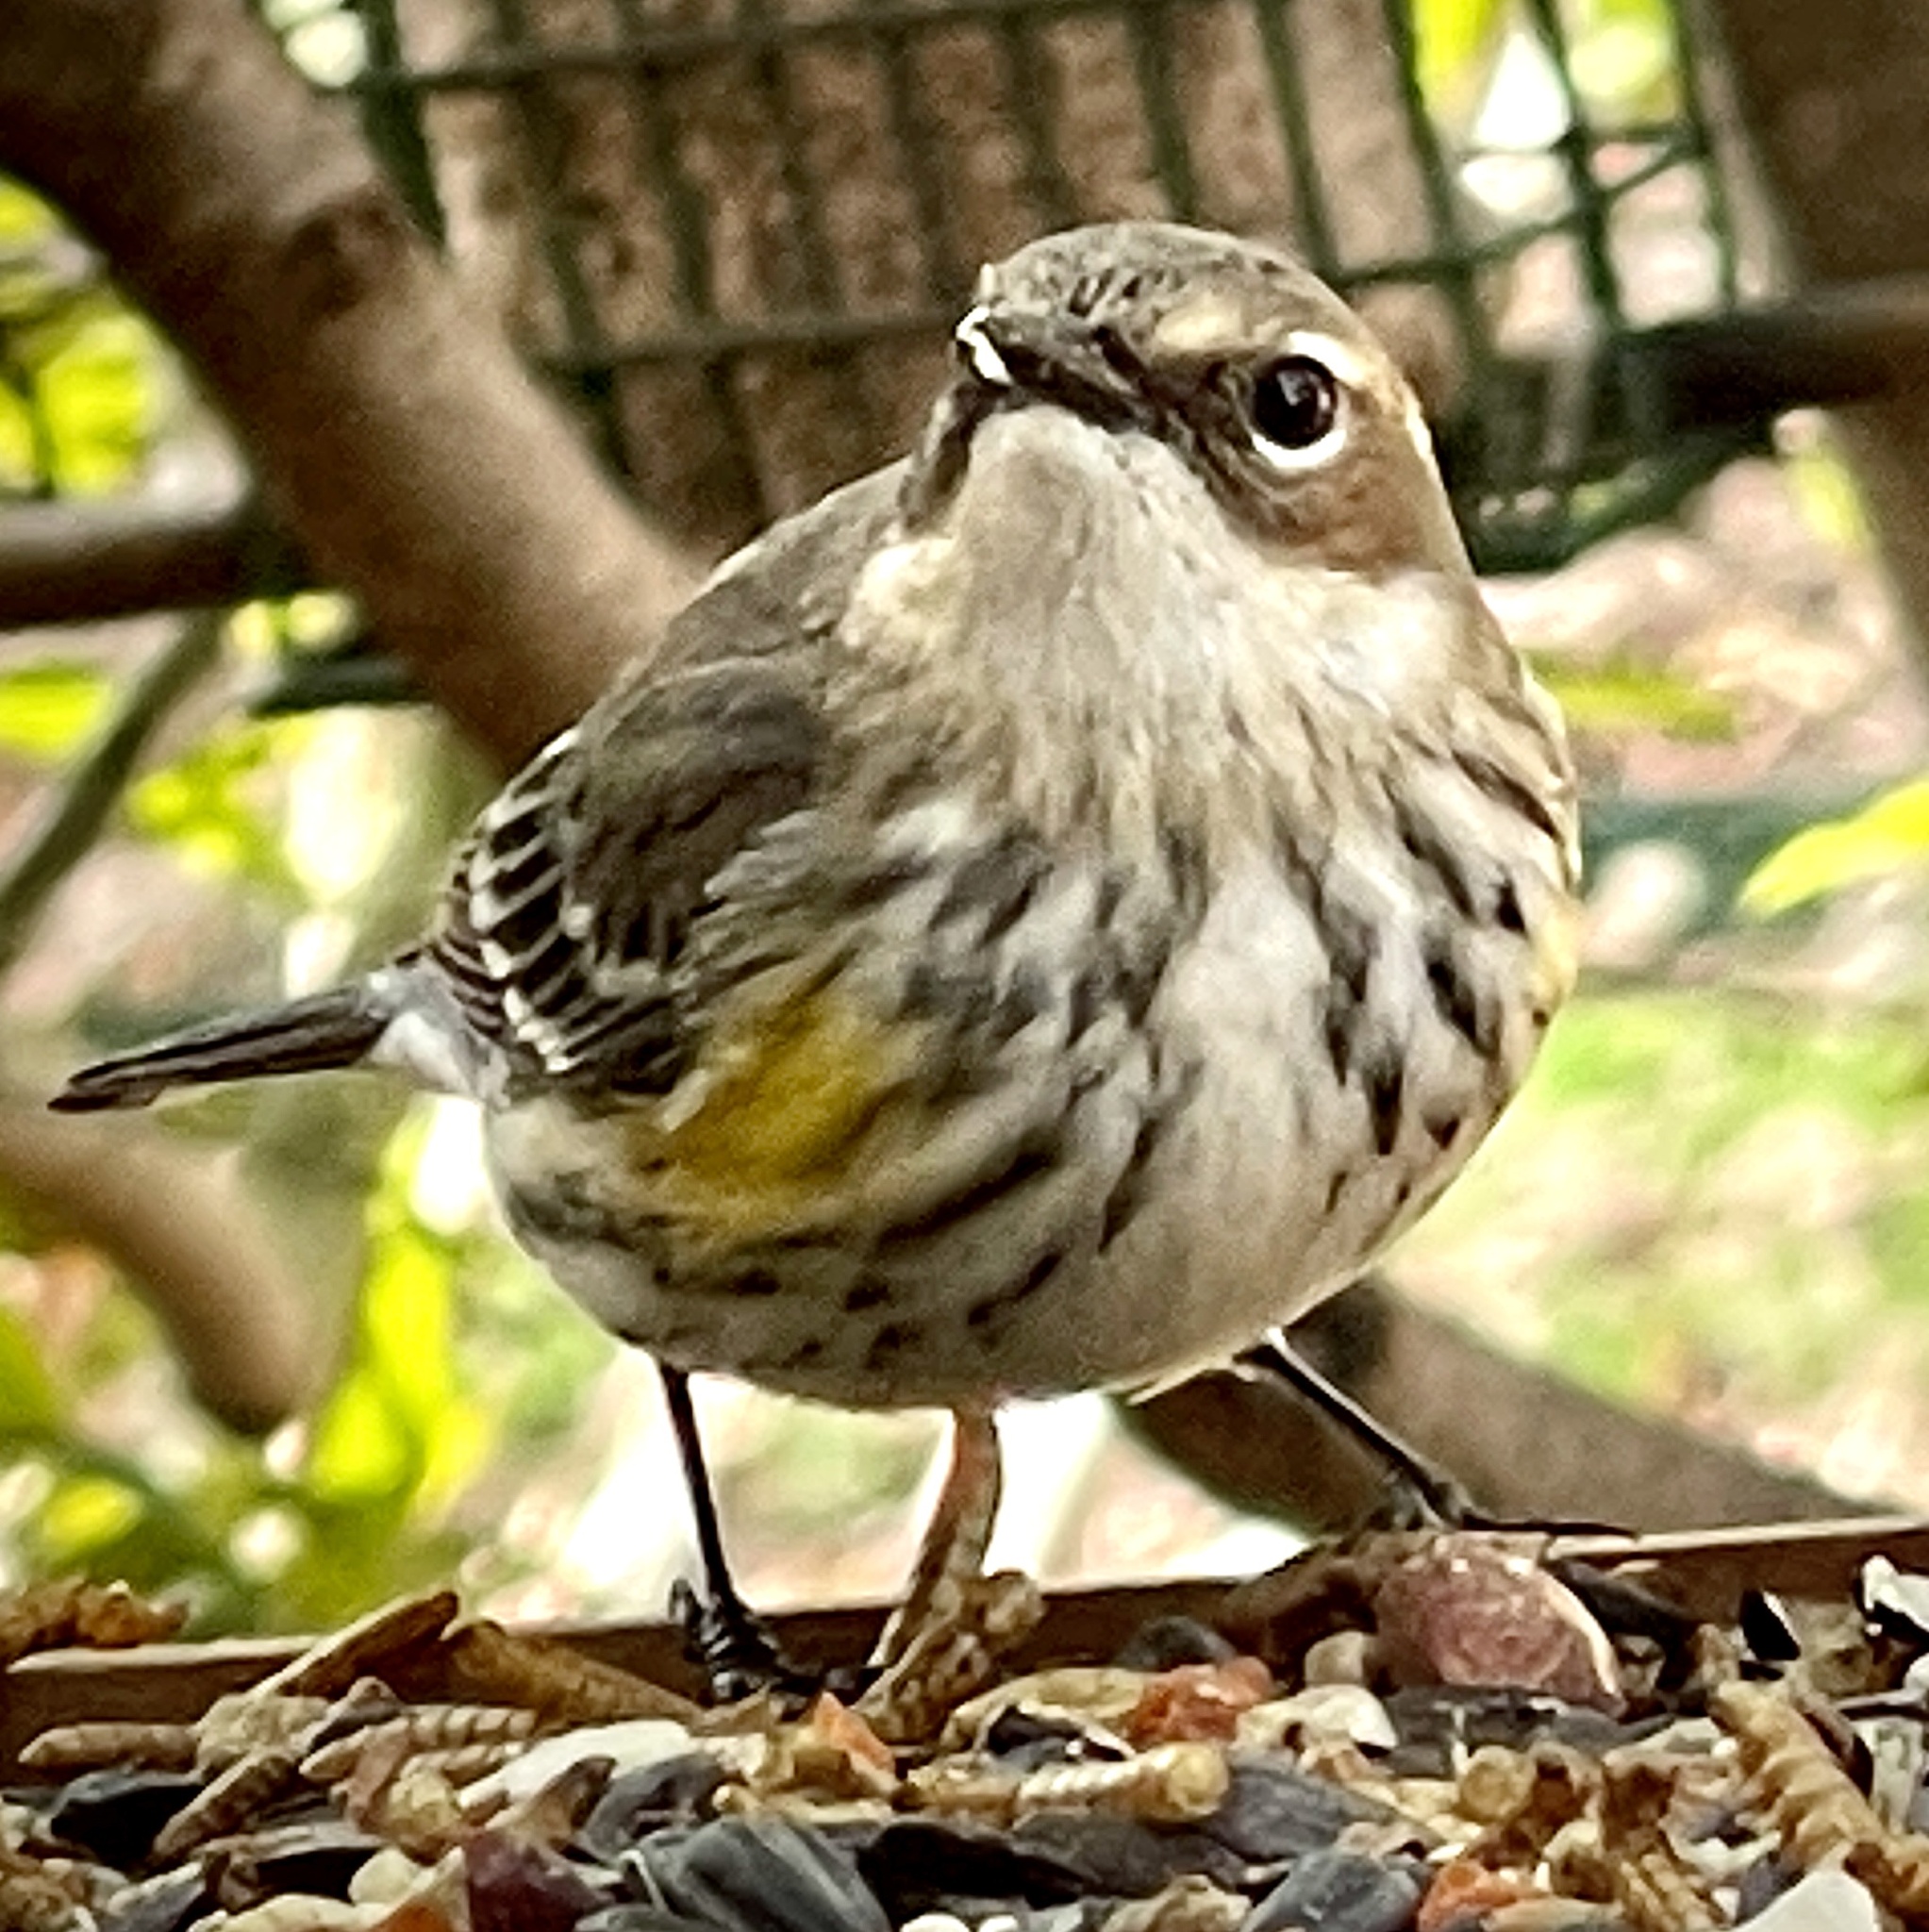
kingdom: Animalia
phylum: Chordata
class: Aves
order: Passeriformes
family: Parulidae
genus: Setophaga
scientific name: Setophaga coronata
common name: Myrtle warbler
